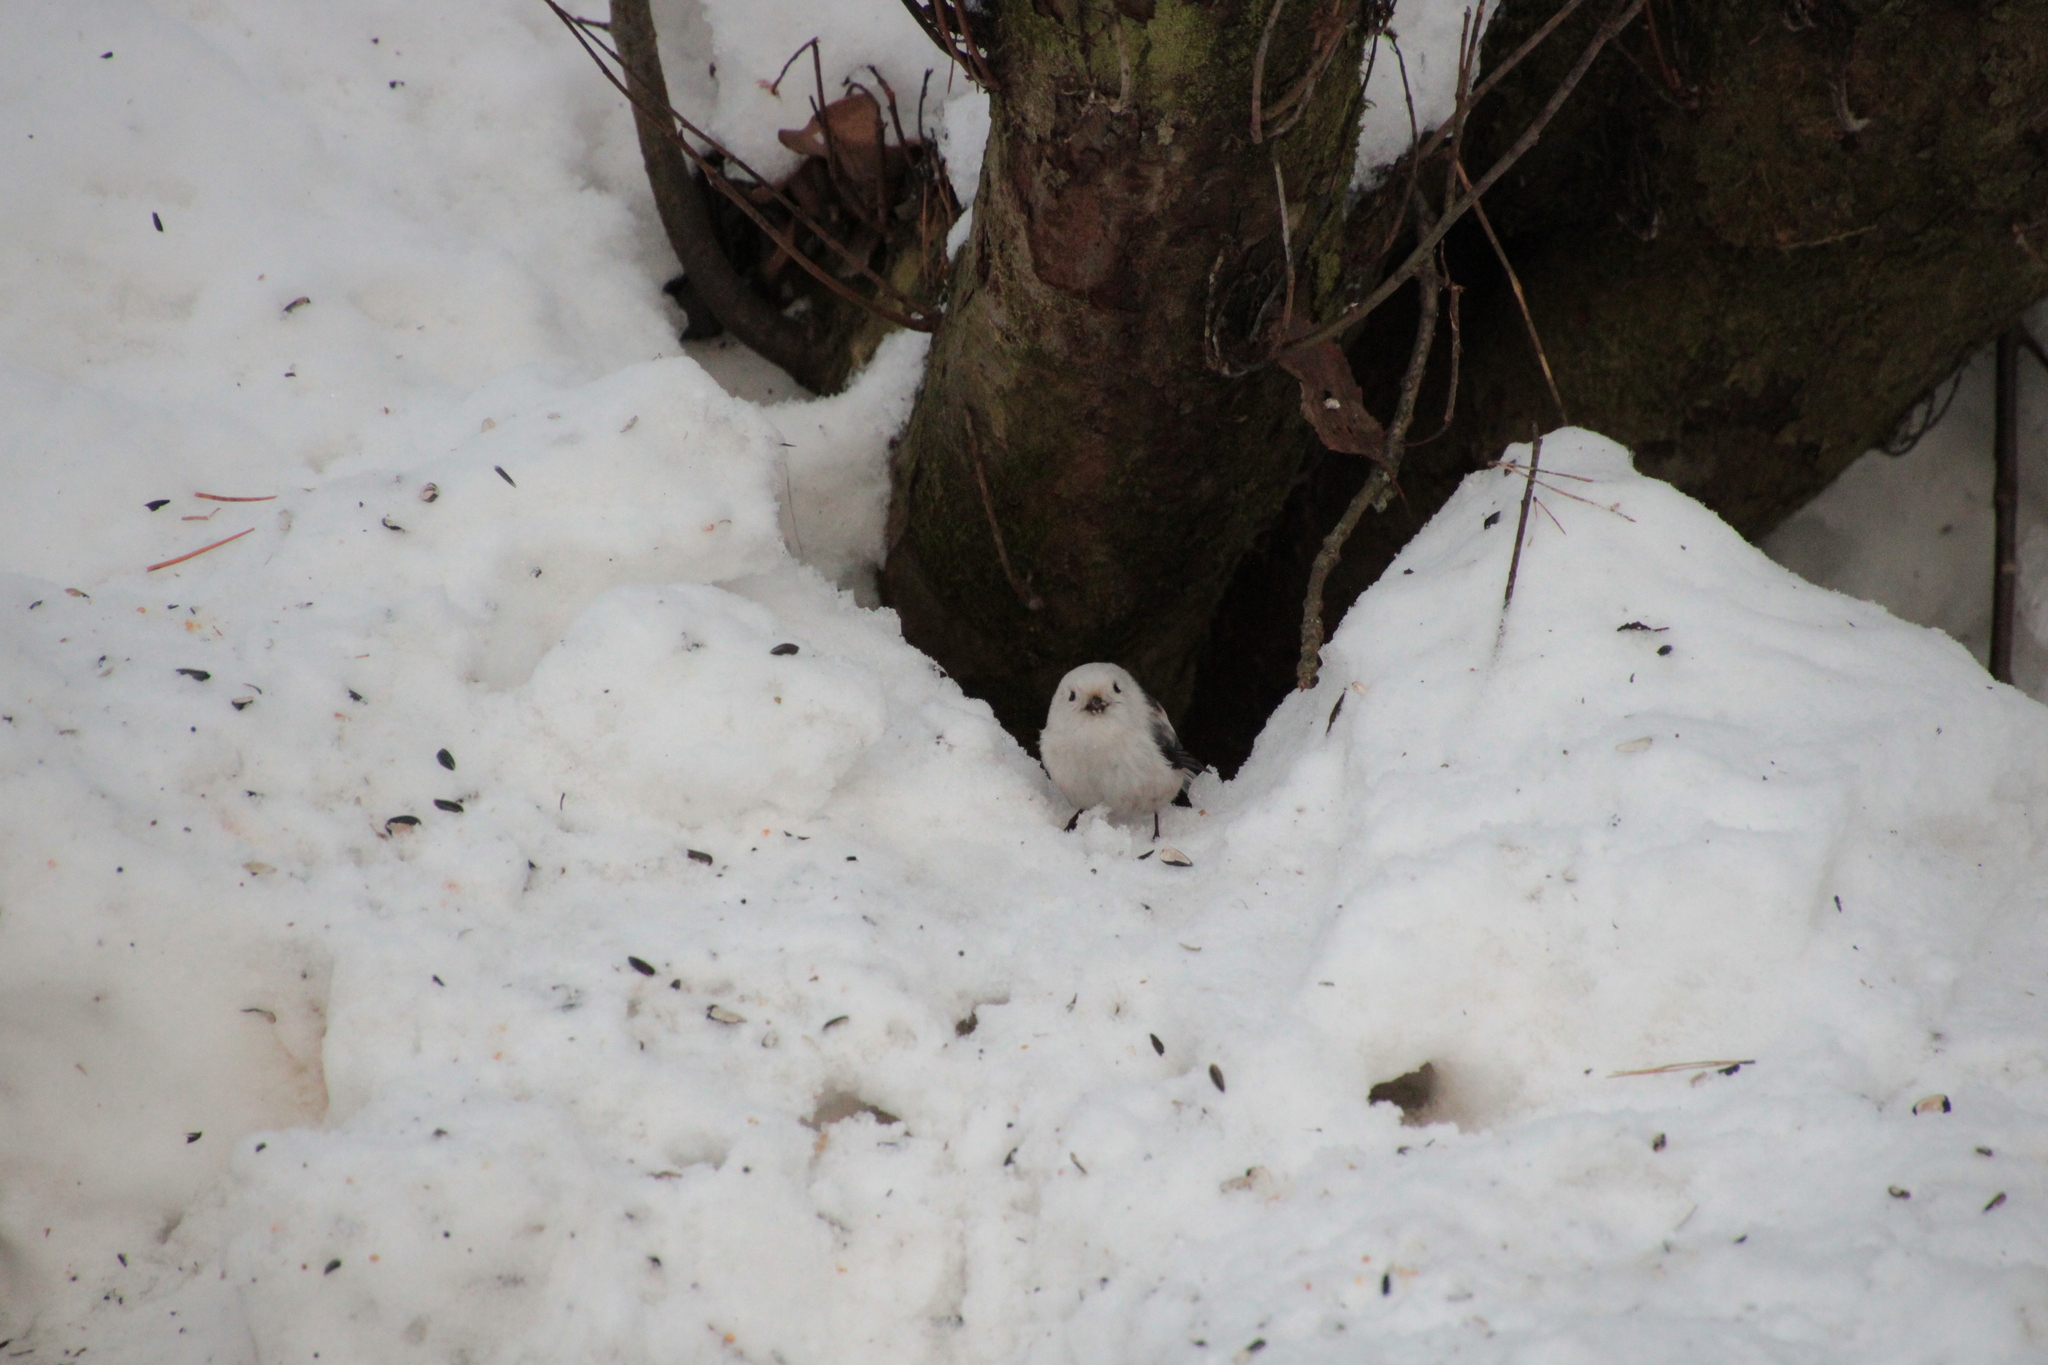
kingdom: Animalia
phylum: Chordata
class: Aves
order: Passeriformes
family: Aegithalidae
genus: Aegithalos
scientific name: Aegithalos caudatus
